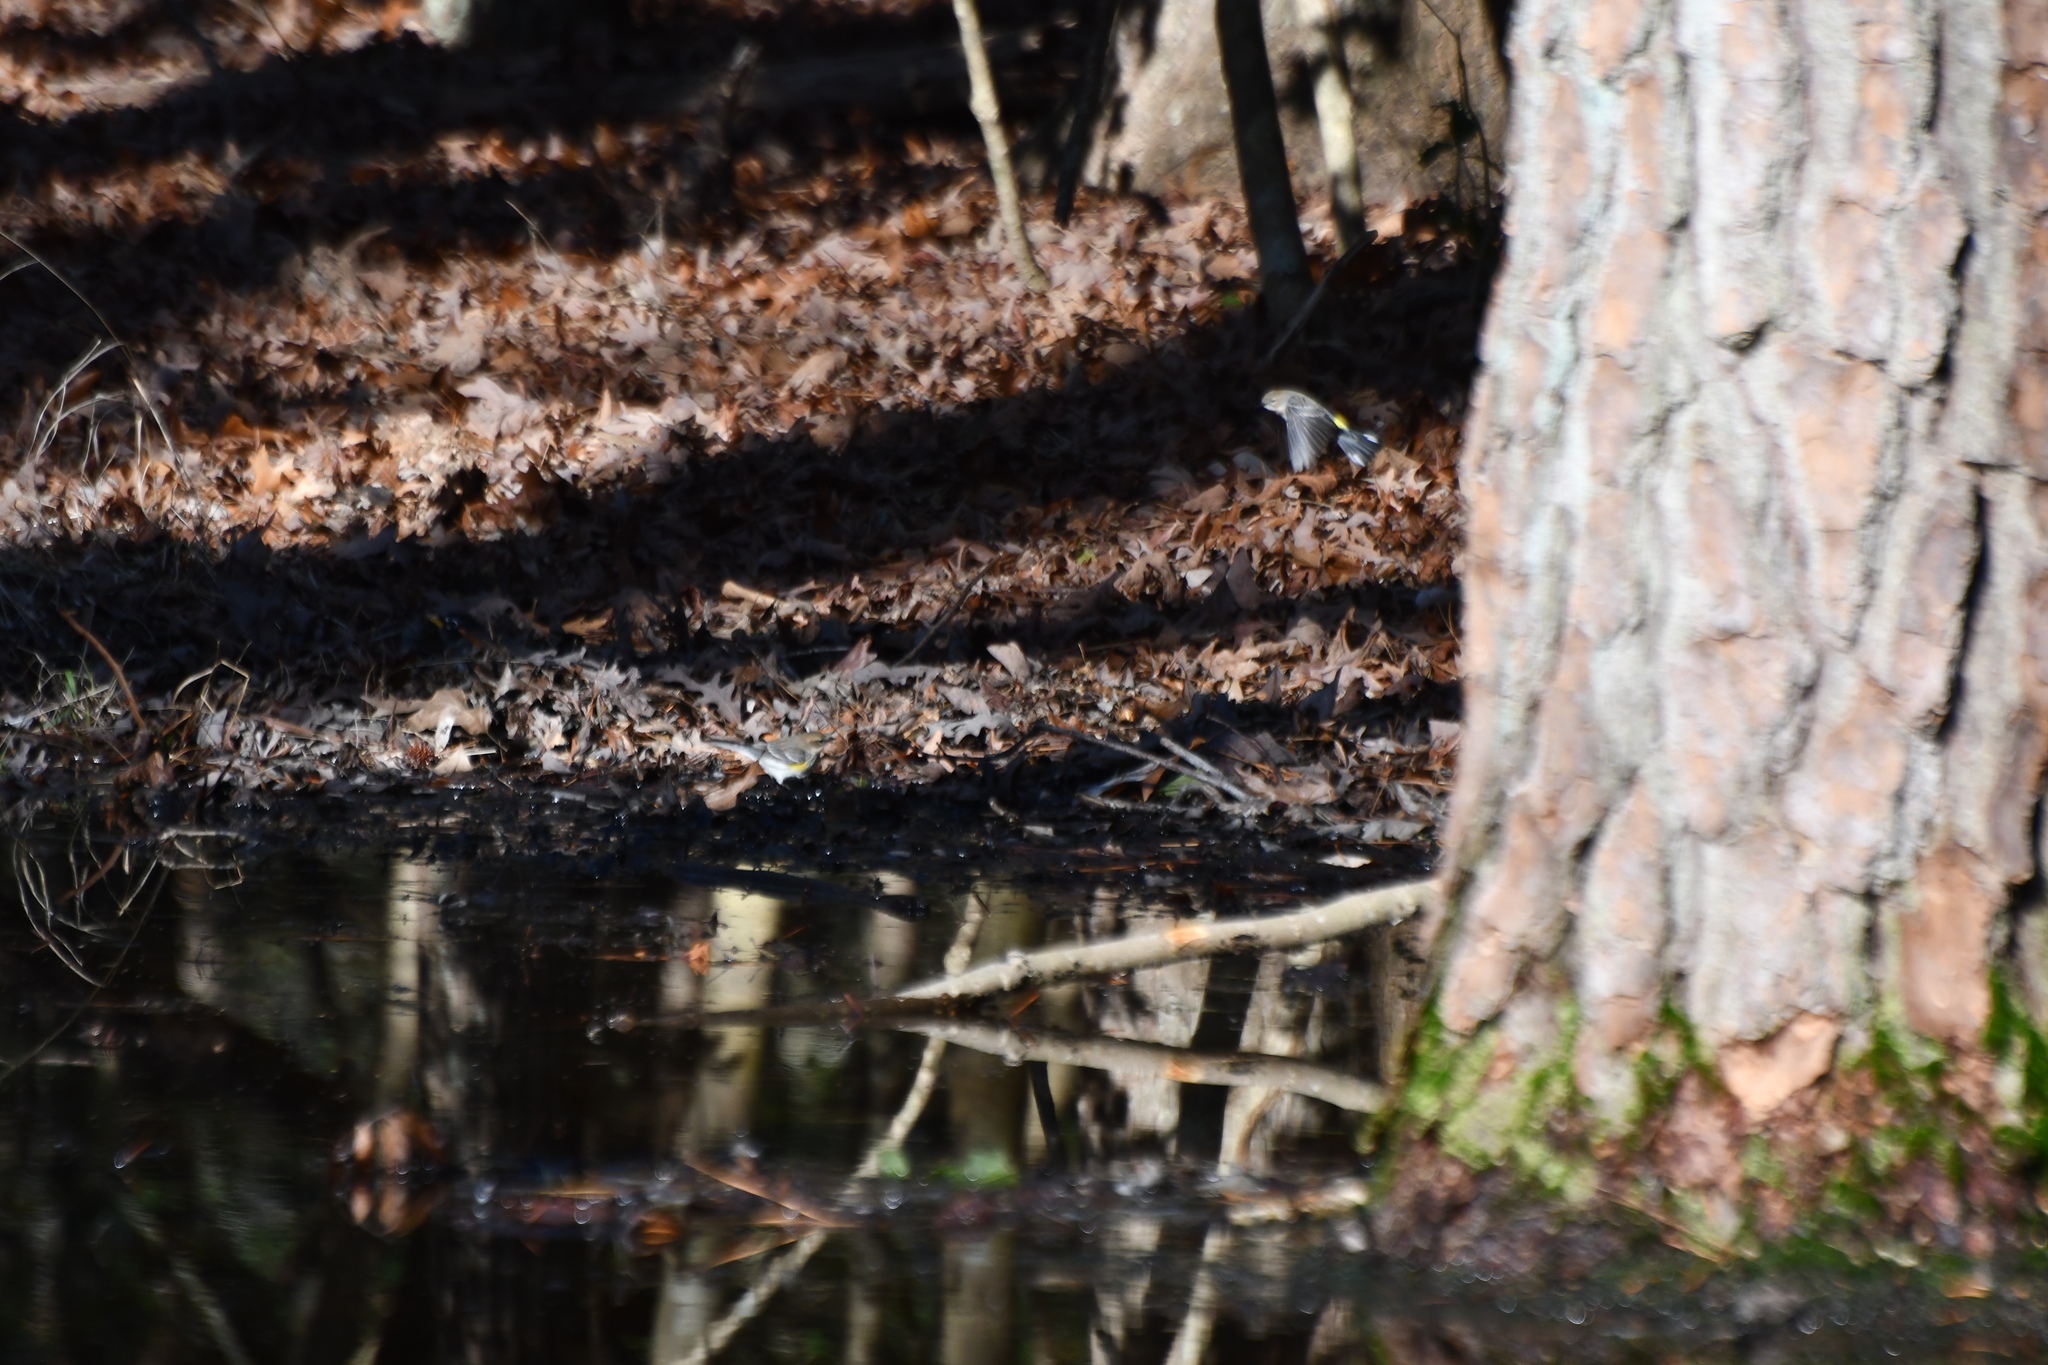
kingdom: Animalia
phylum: Chordata
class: Aves
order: Passeriformes
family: Parulidae
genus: Setophaga
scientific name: Setophaga coronata
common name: Myrtle warbler
